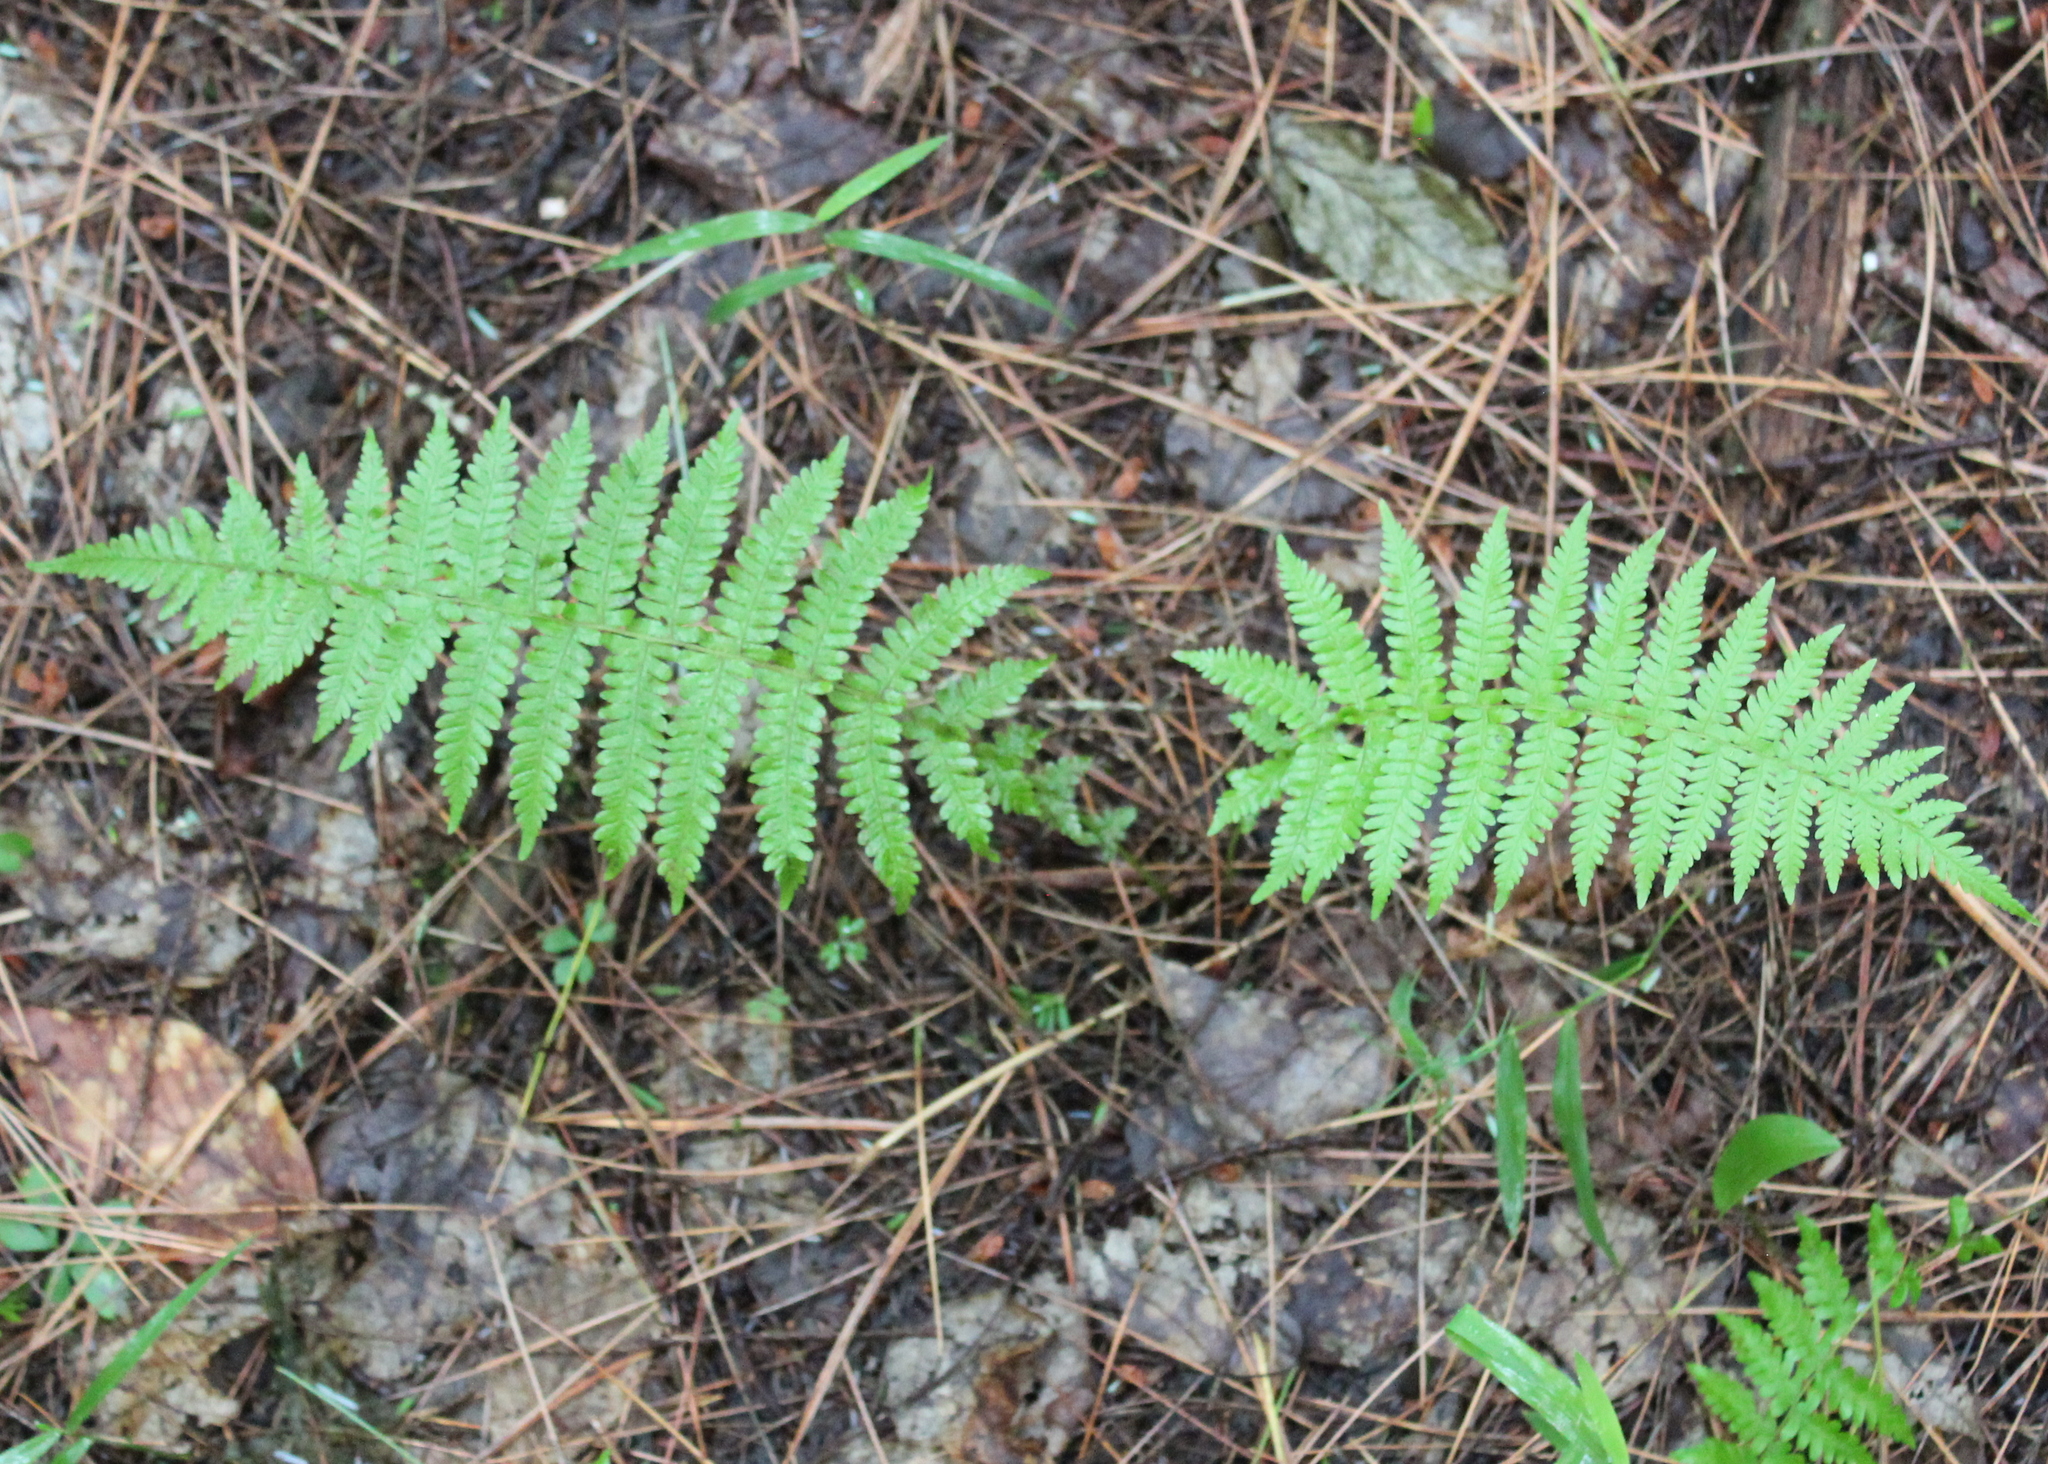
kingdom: Plantae
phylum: Tracheophyta
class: Polypodiopsida
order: Polypodiales
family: Thelypteridaceae
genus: Amauropelta
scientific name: Amauropelta noveboracensis
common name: New york fern
